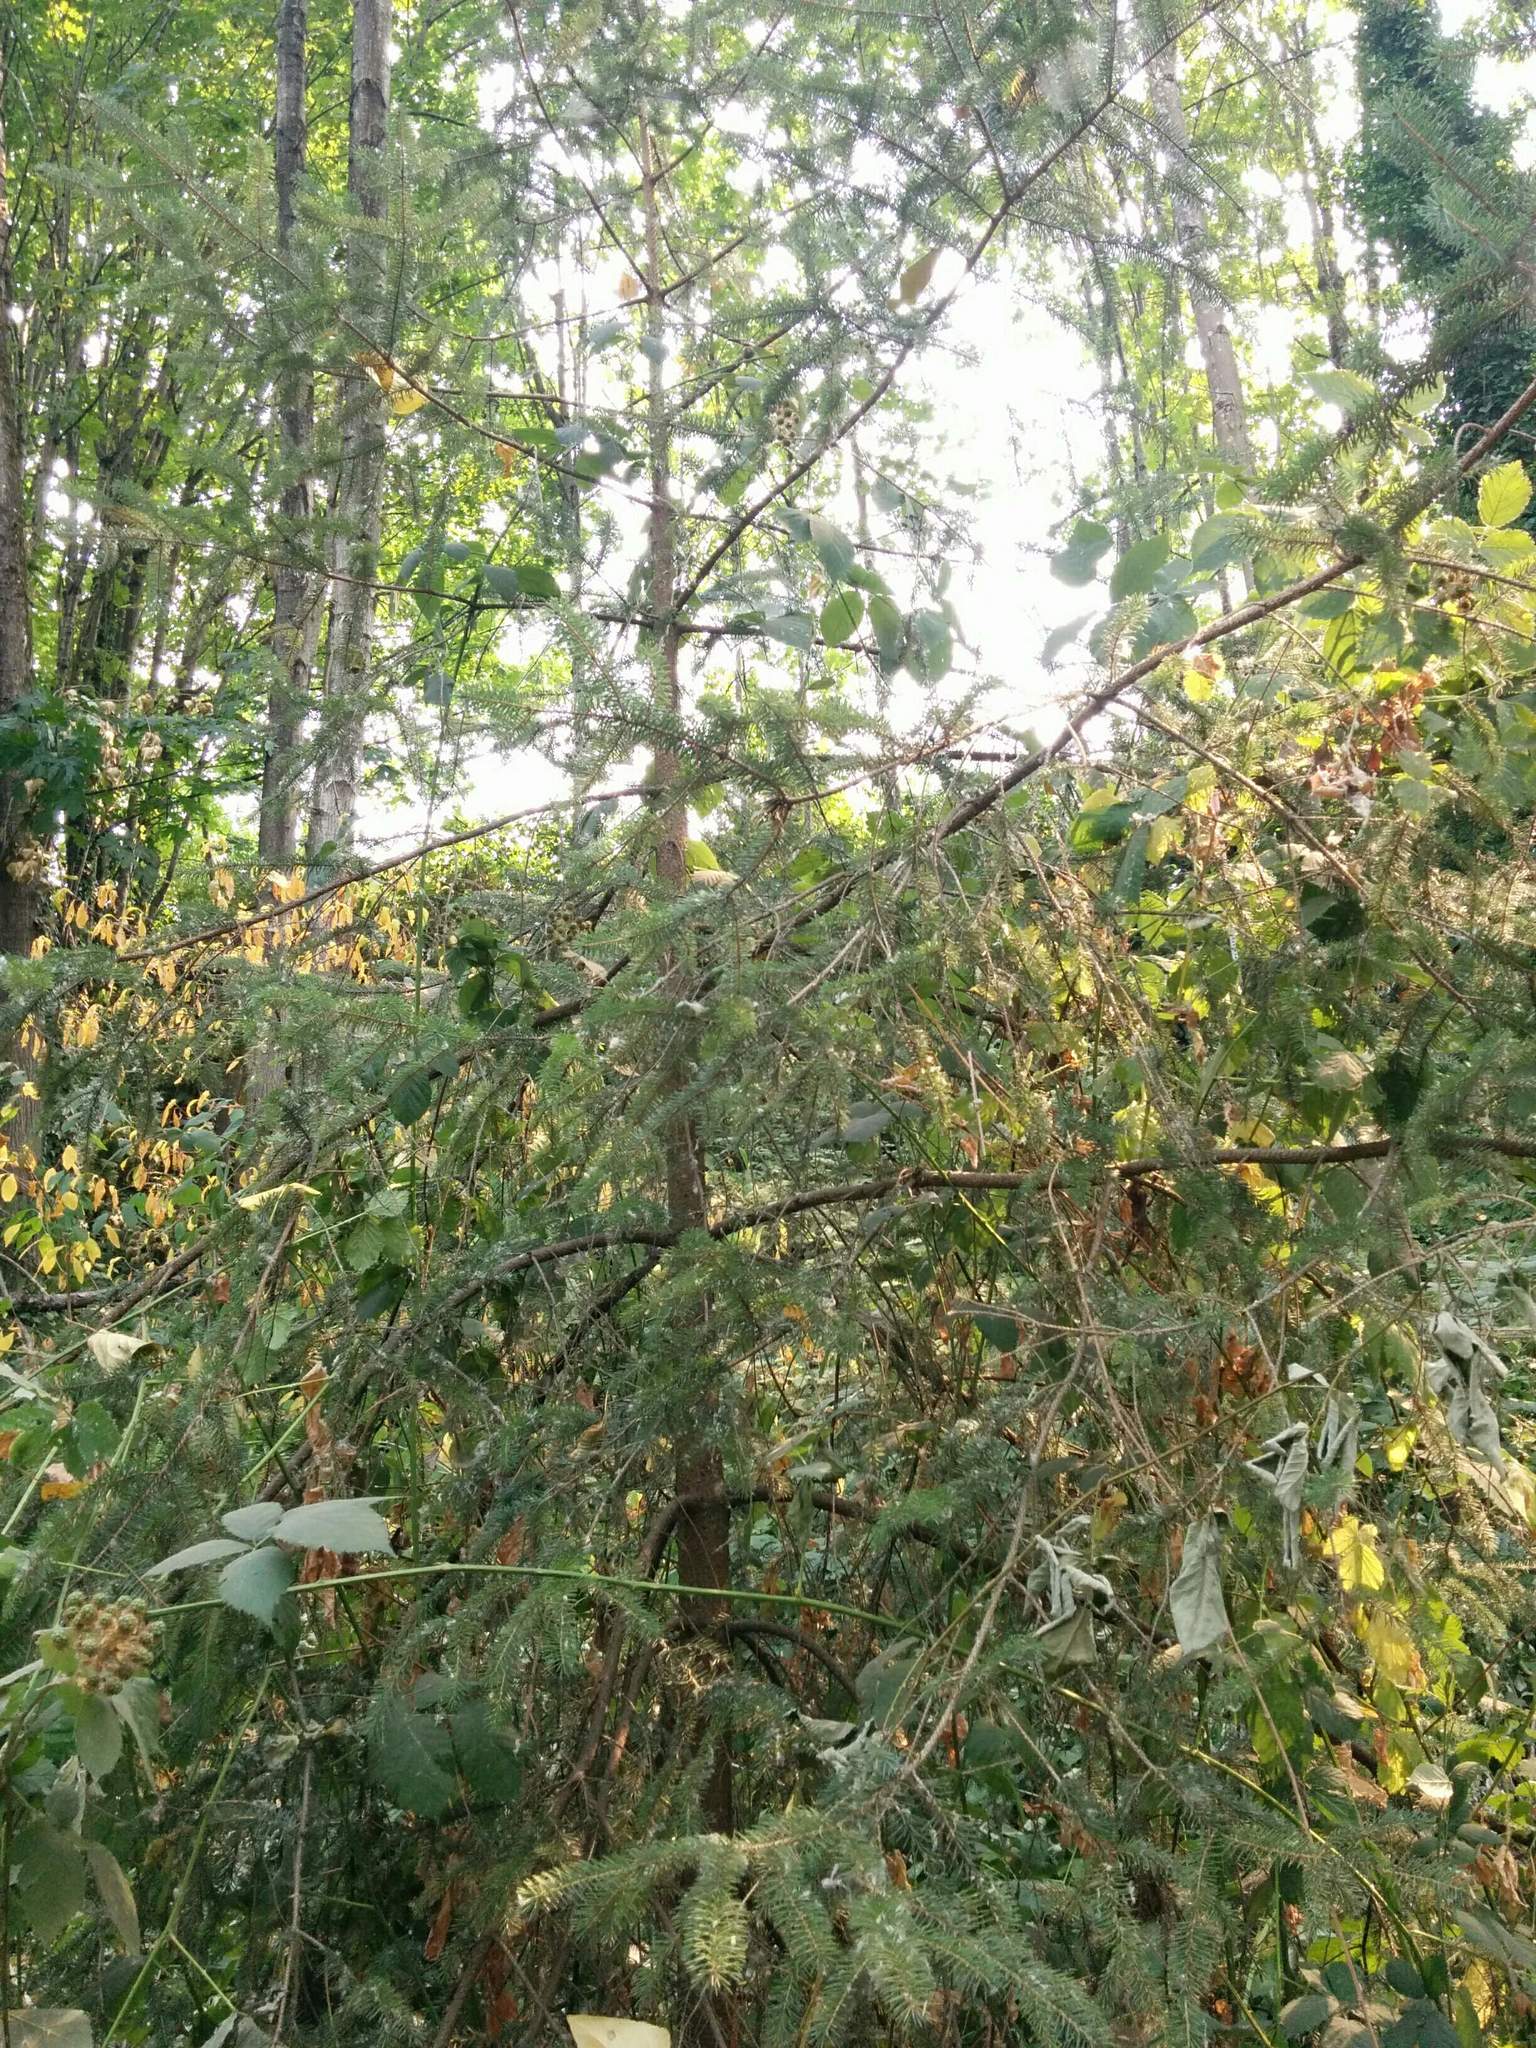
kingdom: Plantae
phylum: Tracheophyta
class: Pinopsida
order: Pinales
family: Pinaceae
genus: Picea
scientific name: Picea sitchensis
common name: Sitka spruce
